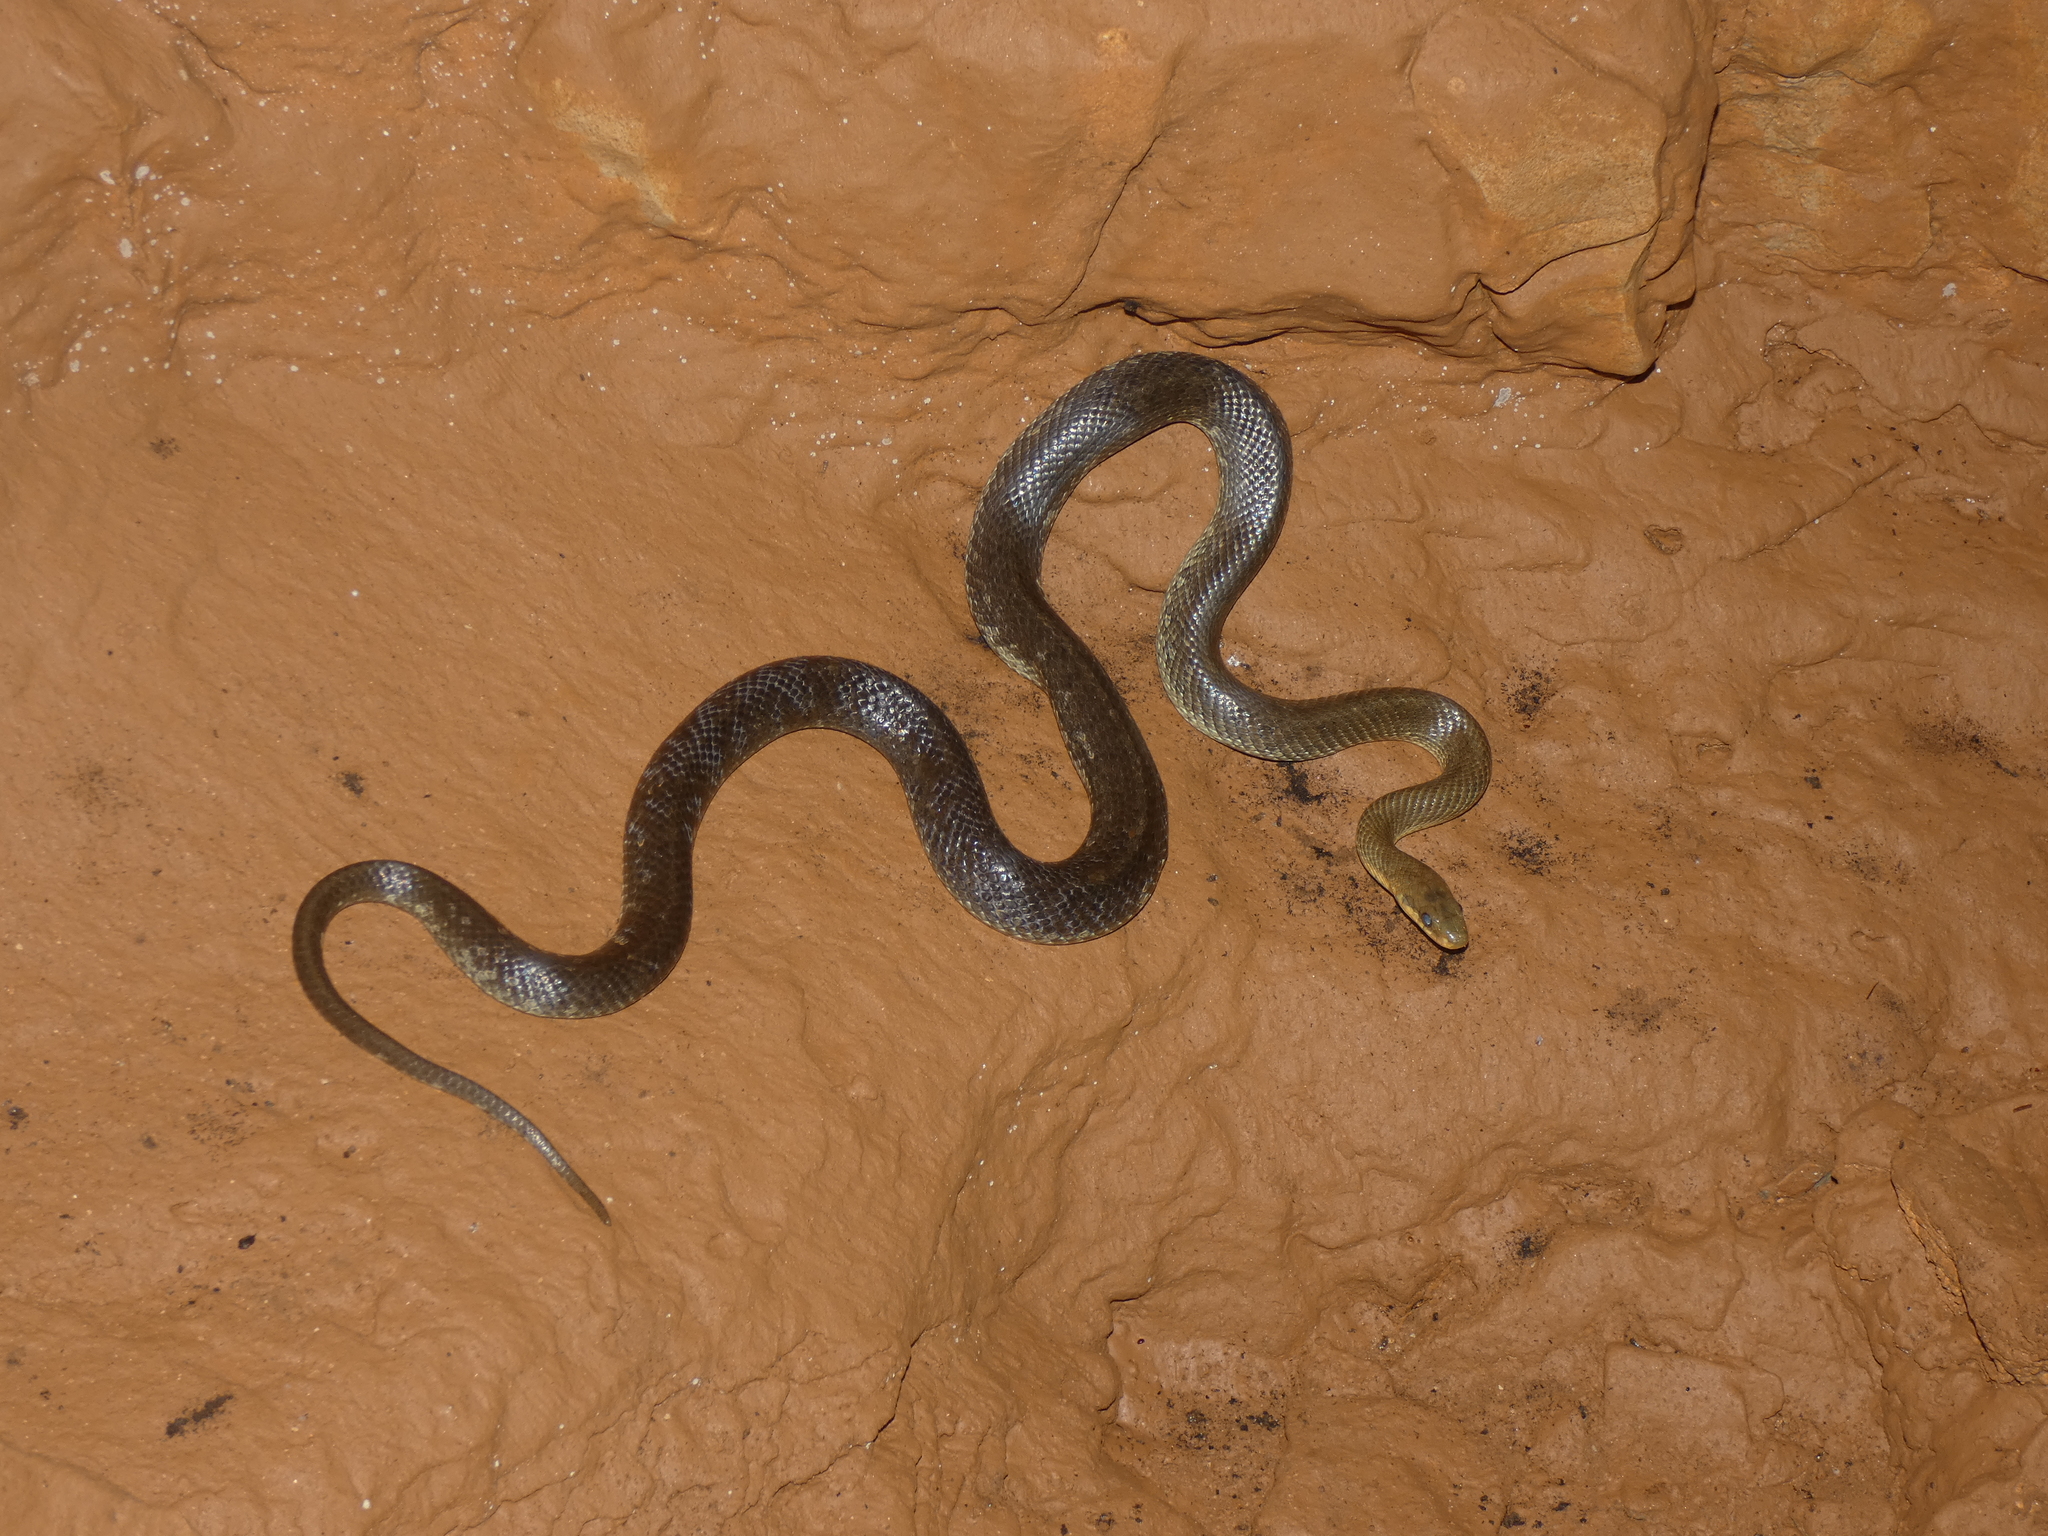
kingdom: Animalia
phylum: Chordata
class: Squamata
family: Colubridae
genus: Zamenis
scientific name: Zamenis longissimus
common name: Aesculapean snake
